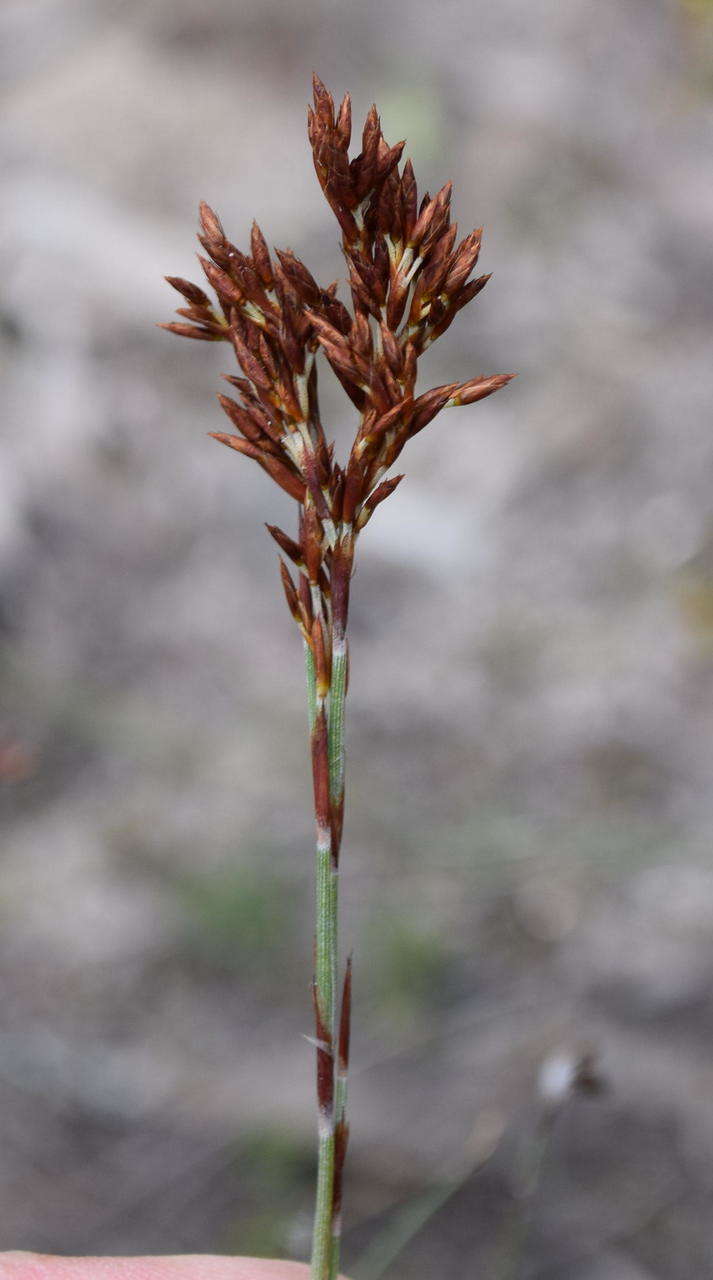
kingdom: Plantae
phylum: Tracheophyta
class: Liliopsida
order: Poales
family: Restionaceae
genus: Hypolaena
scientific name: Hypolaena fastigiata
